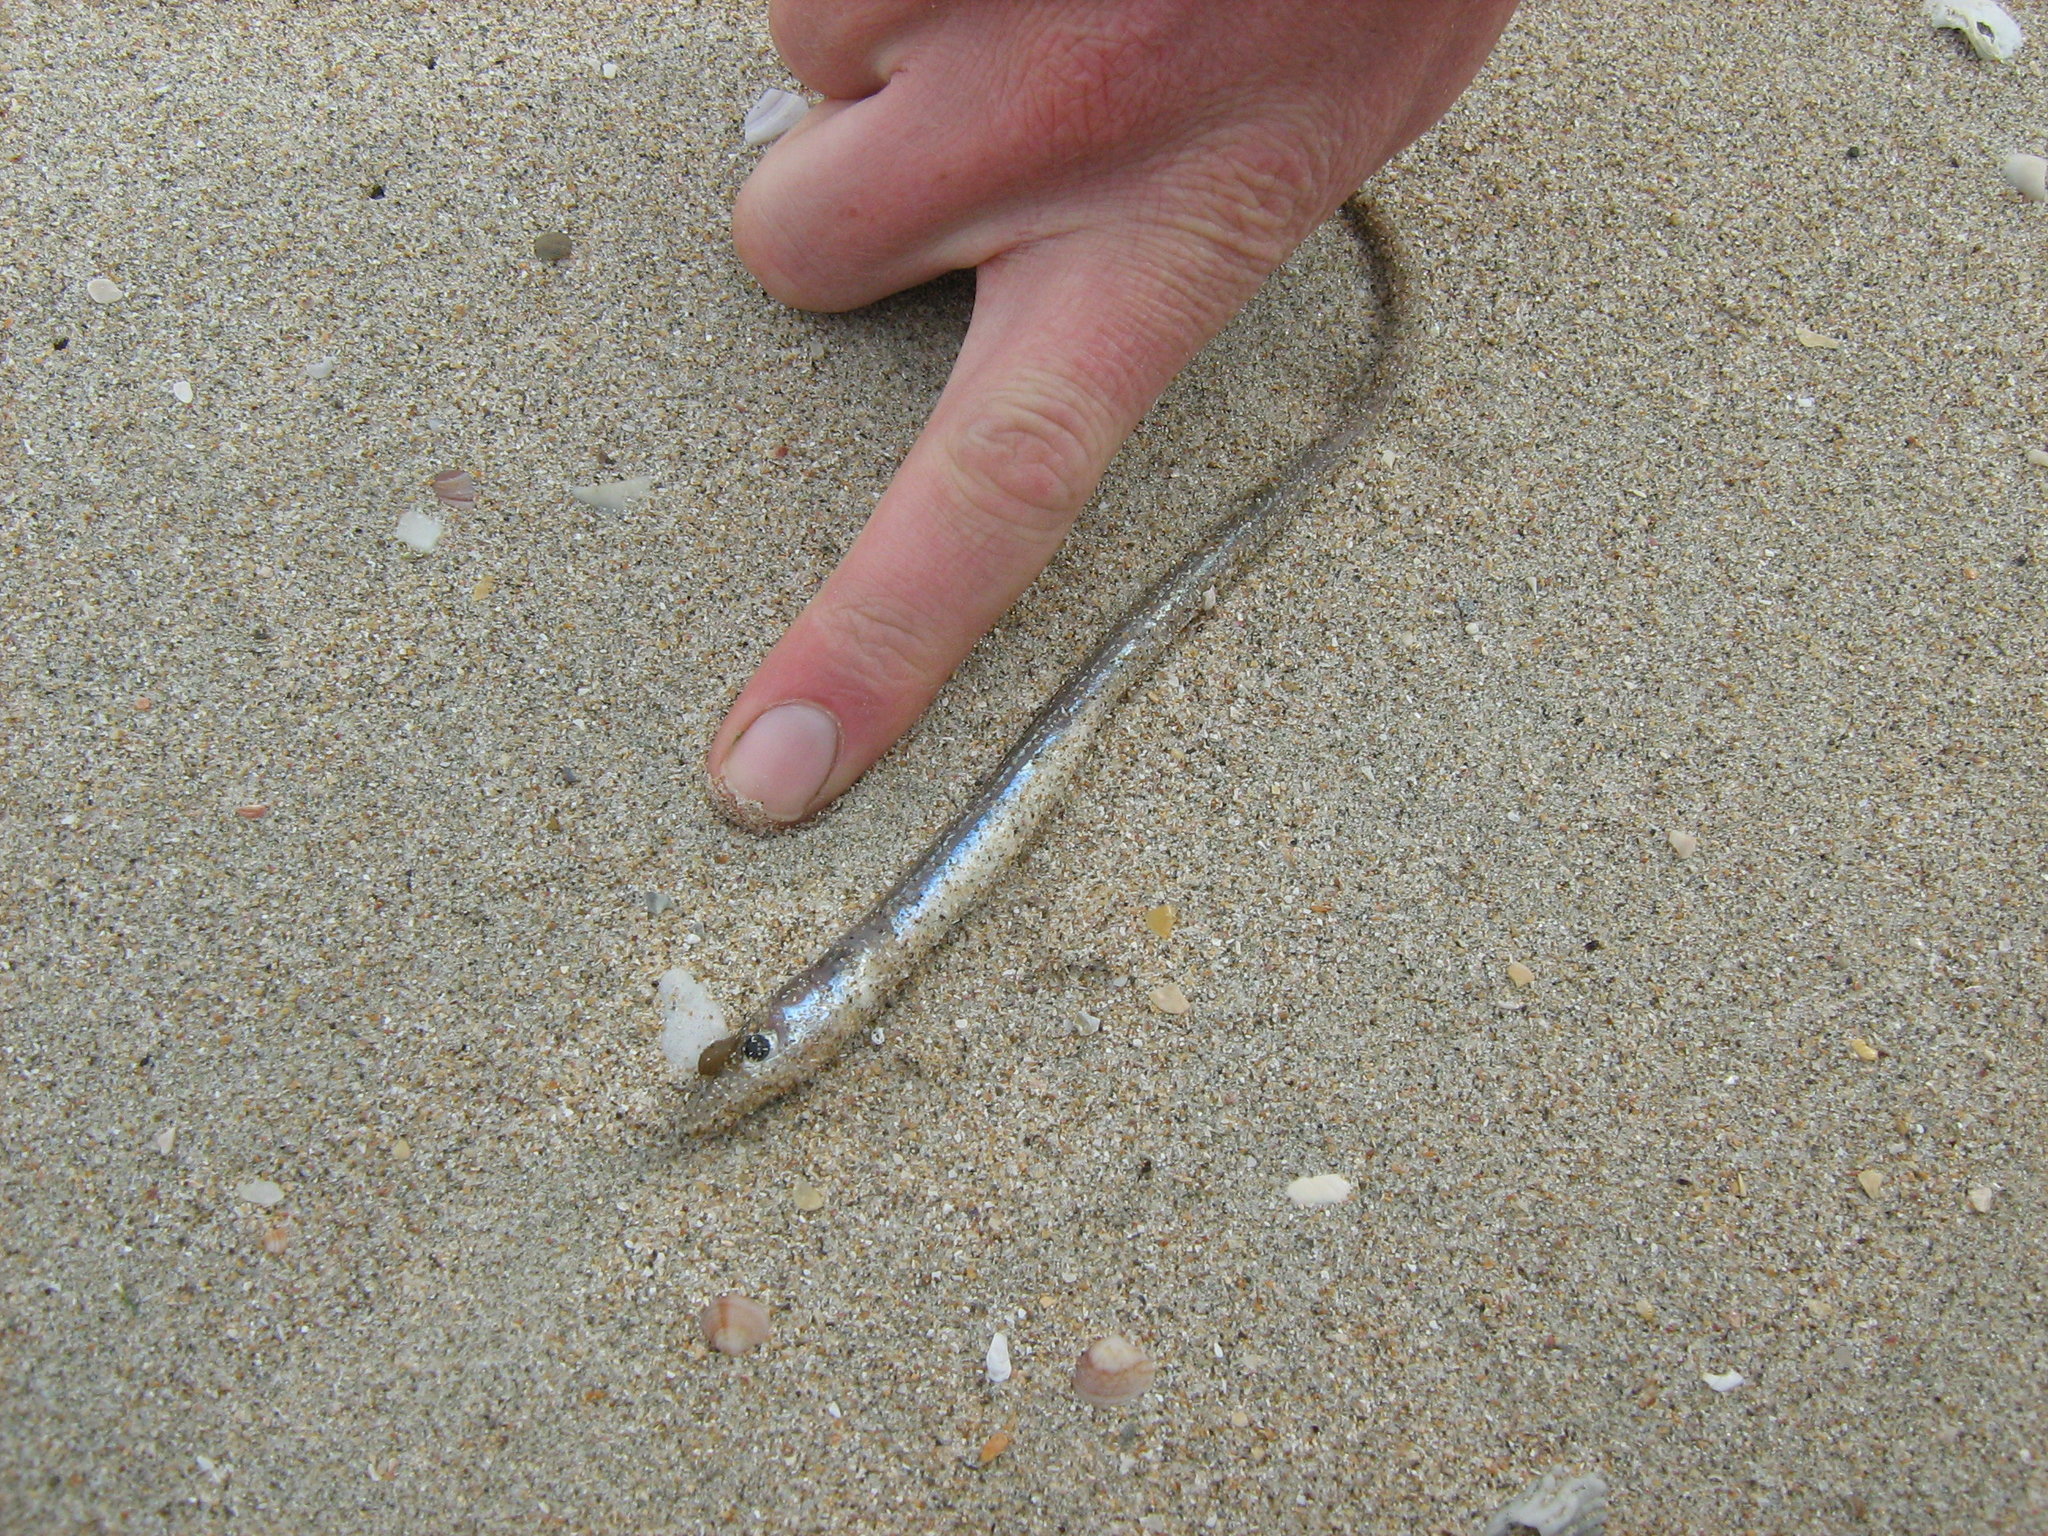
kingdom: Animalia
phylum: Chordata
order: Anguilliformes
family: Congridae
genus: Gnathophis
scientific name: Gnathophis
